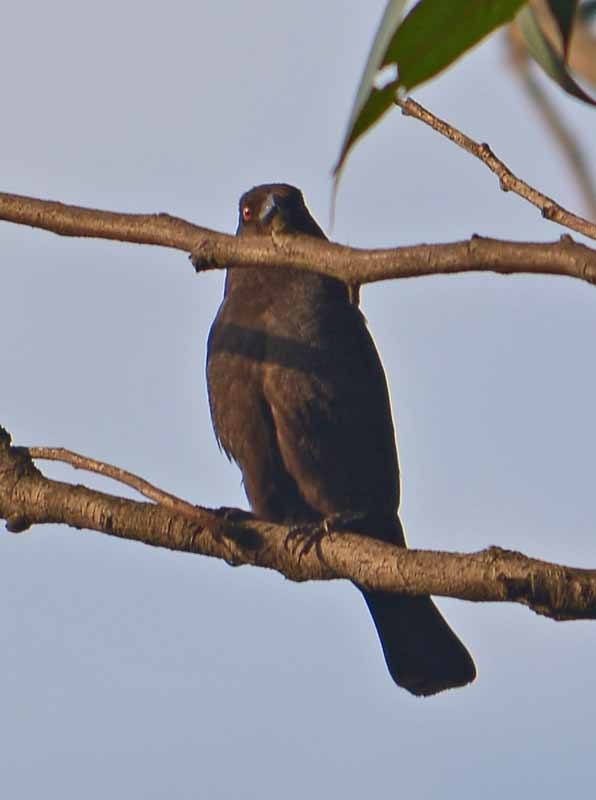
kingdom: Animalia
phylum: Chordata
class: Aves
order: Passeriformes
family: Icteridae
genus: Molothrus
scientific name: Molothrus aeneus
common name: Bronzed cowbird
